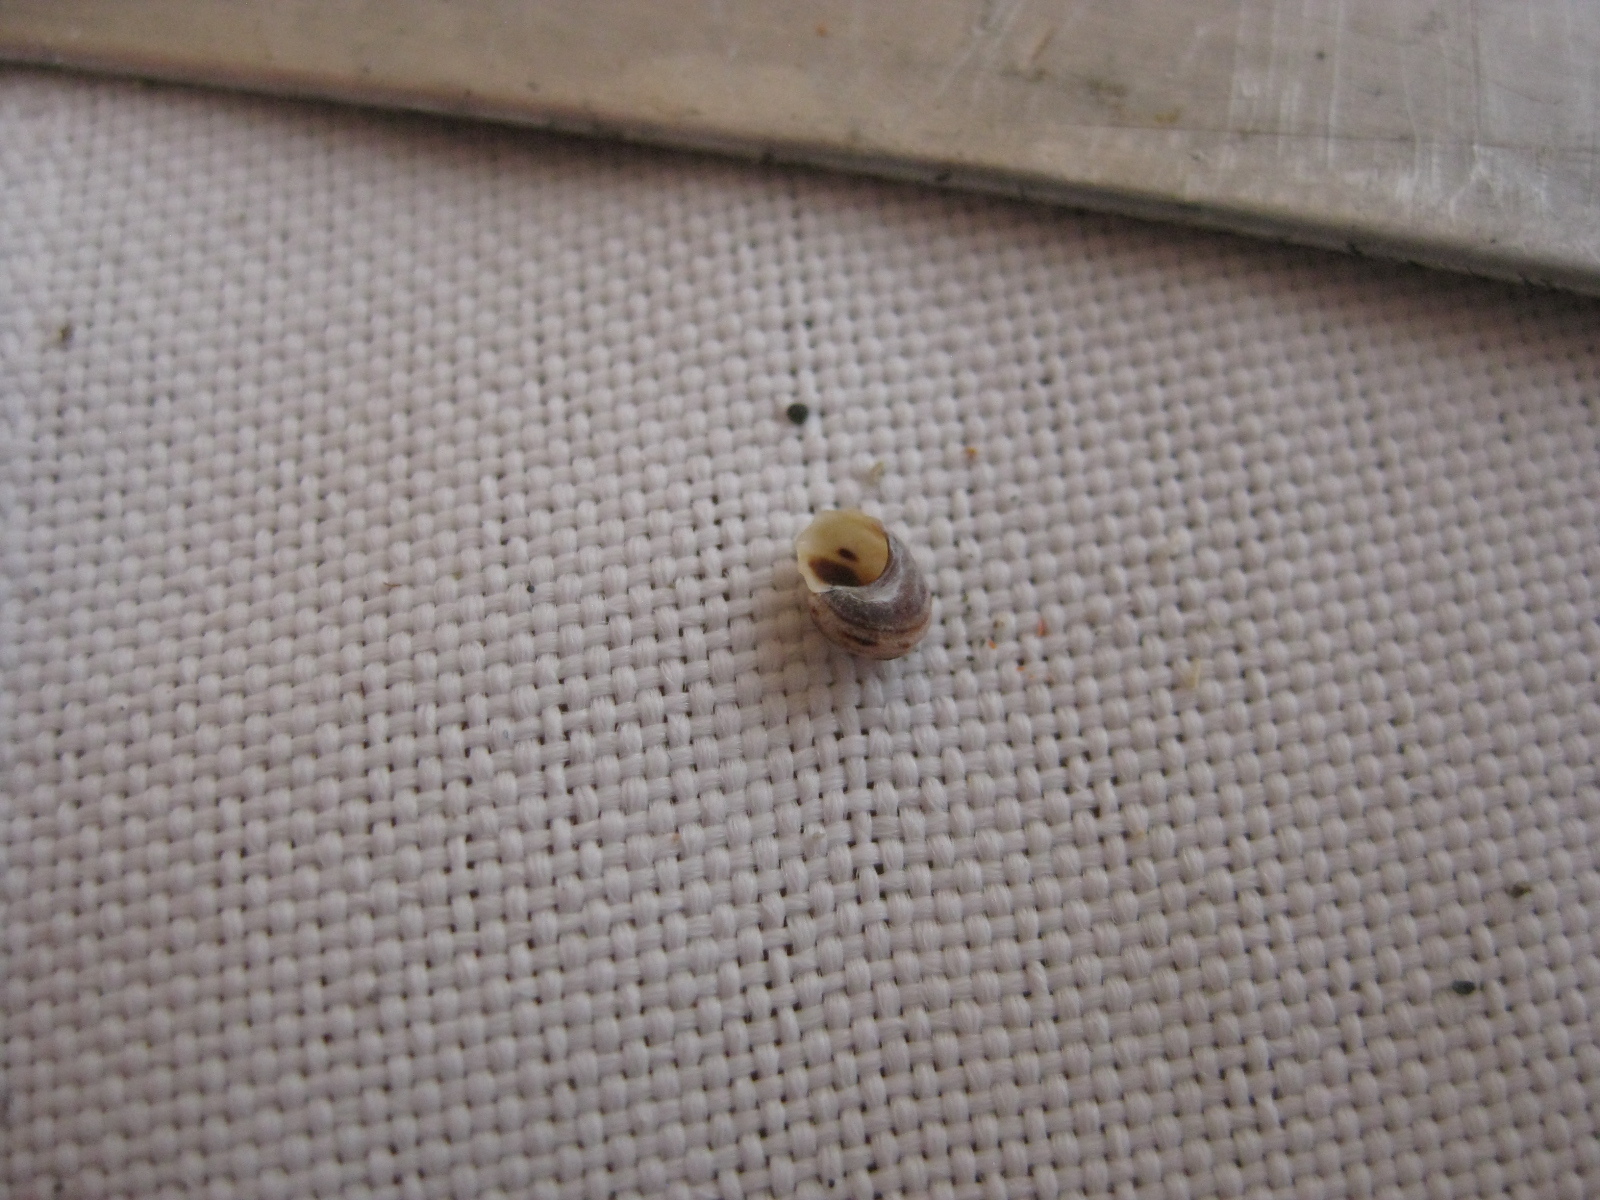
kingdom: Animalia
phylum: Mollusca
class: Gastropoda
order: Littorinimorpha
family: Littorinidae
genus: Risellopsis
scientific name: Risellopsis varia
